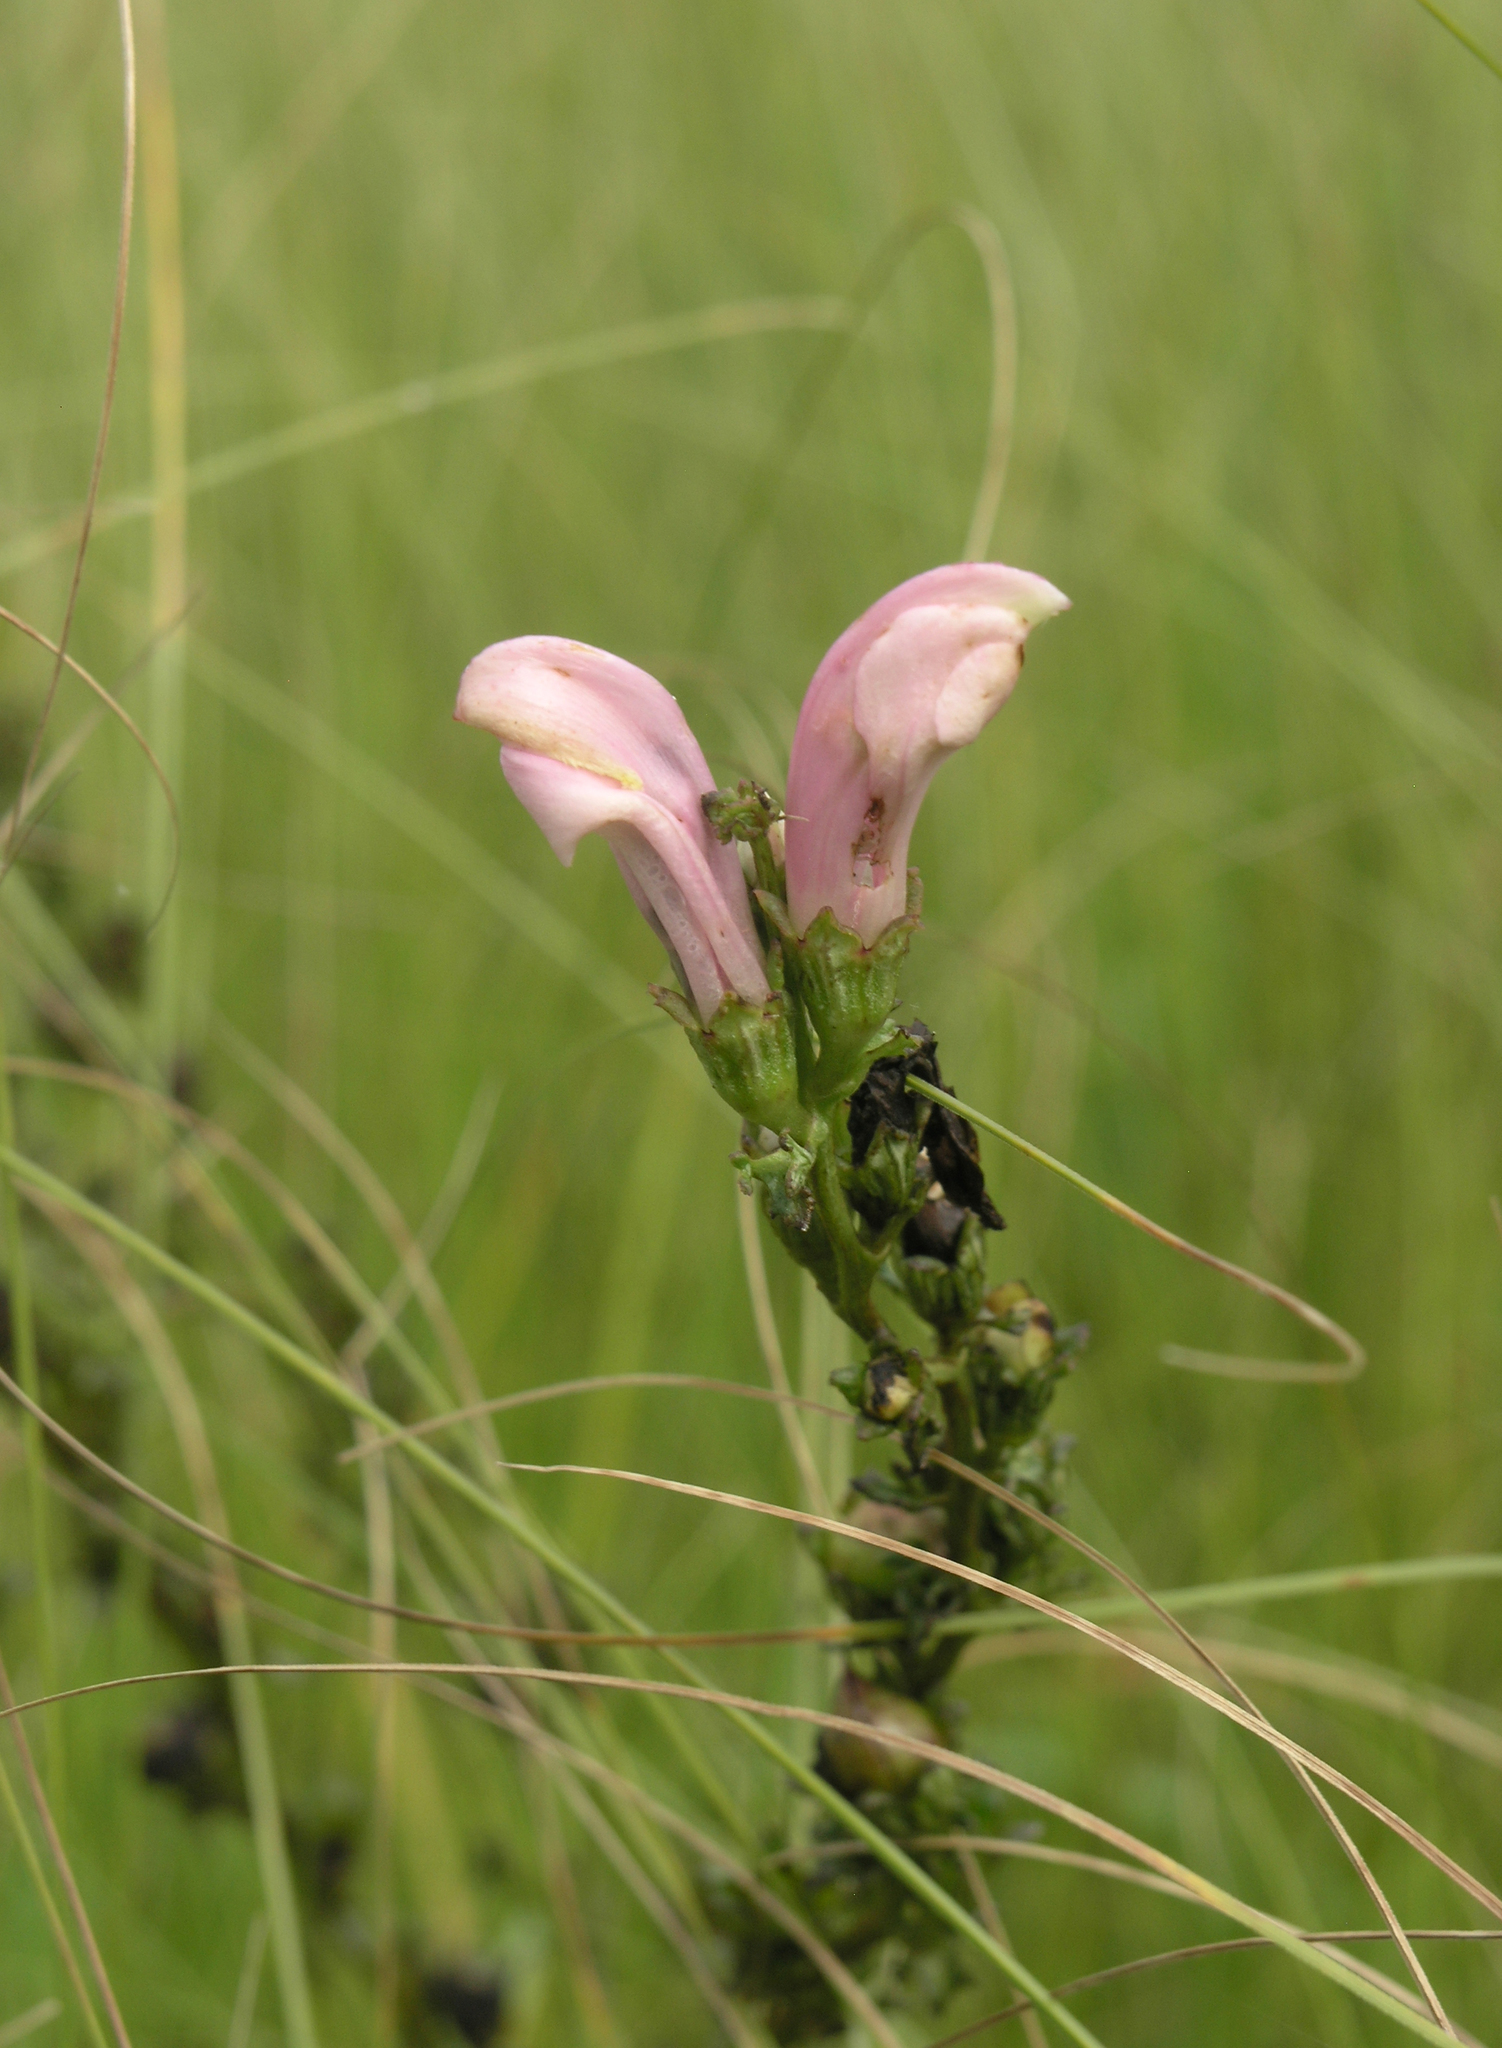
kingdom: Plantae
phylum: Tracheophyta
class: Magnoliopsida
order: Lamiales
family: Orobanchaceae
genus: Pedicularis
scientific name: Pedicularis
